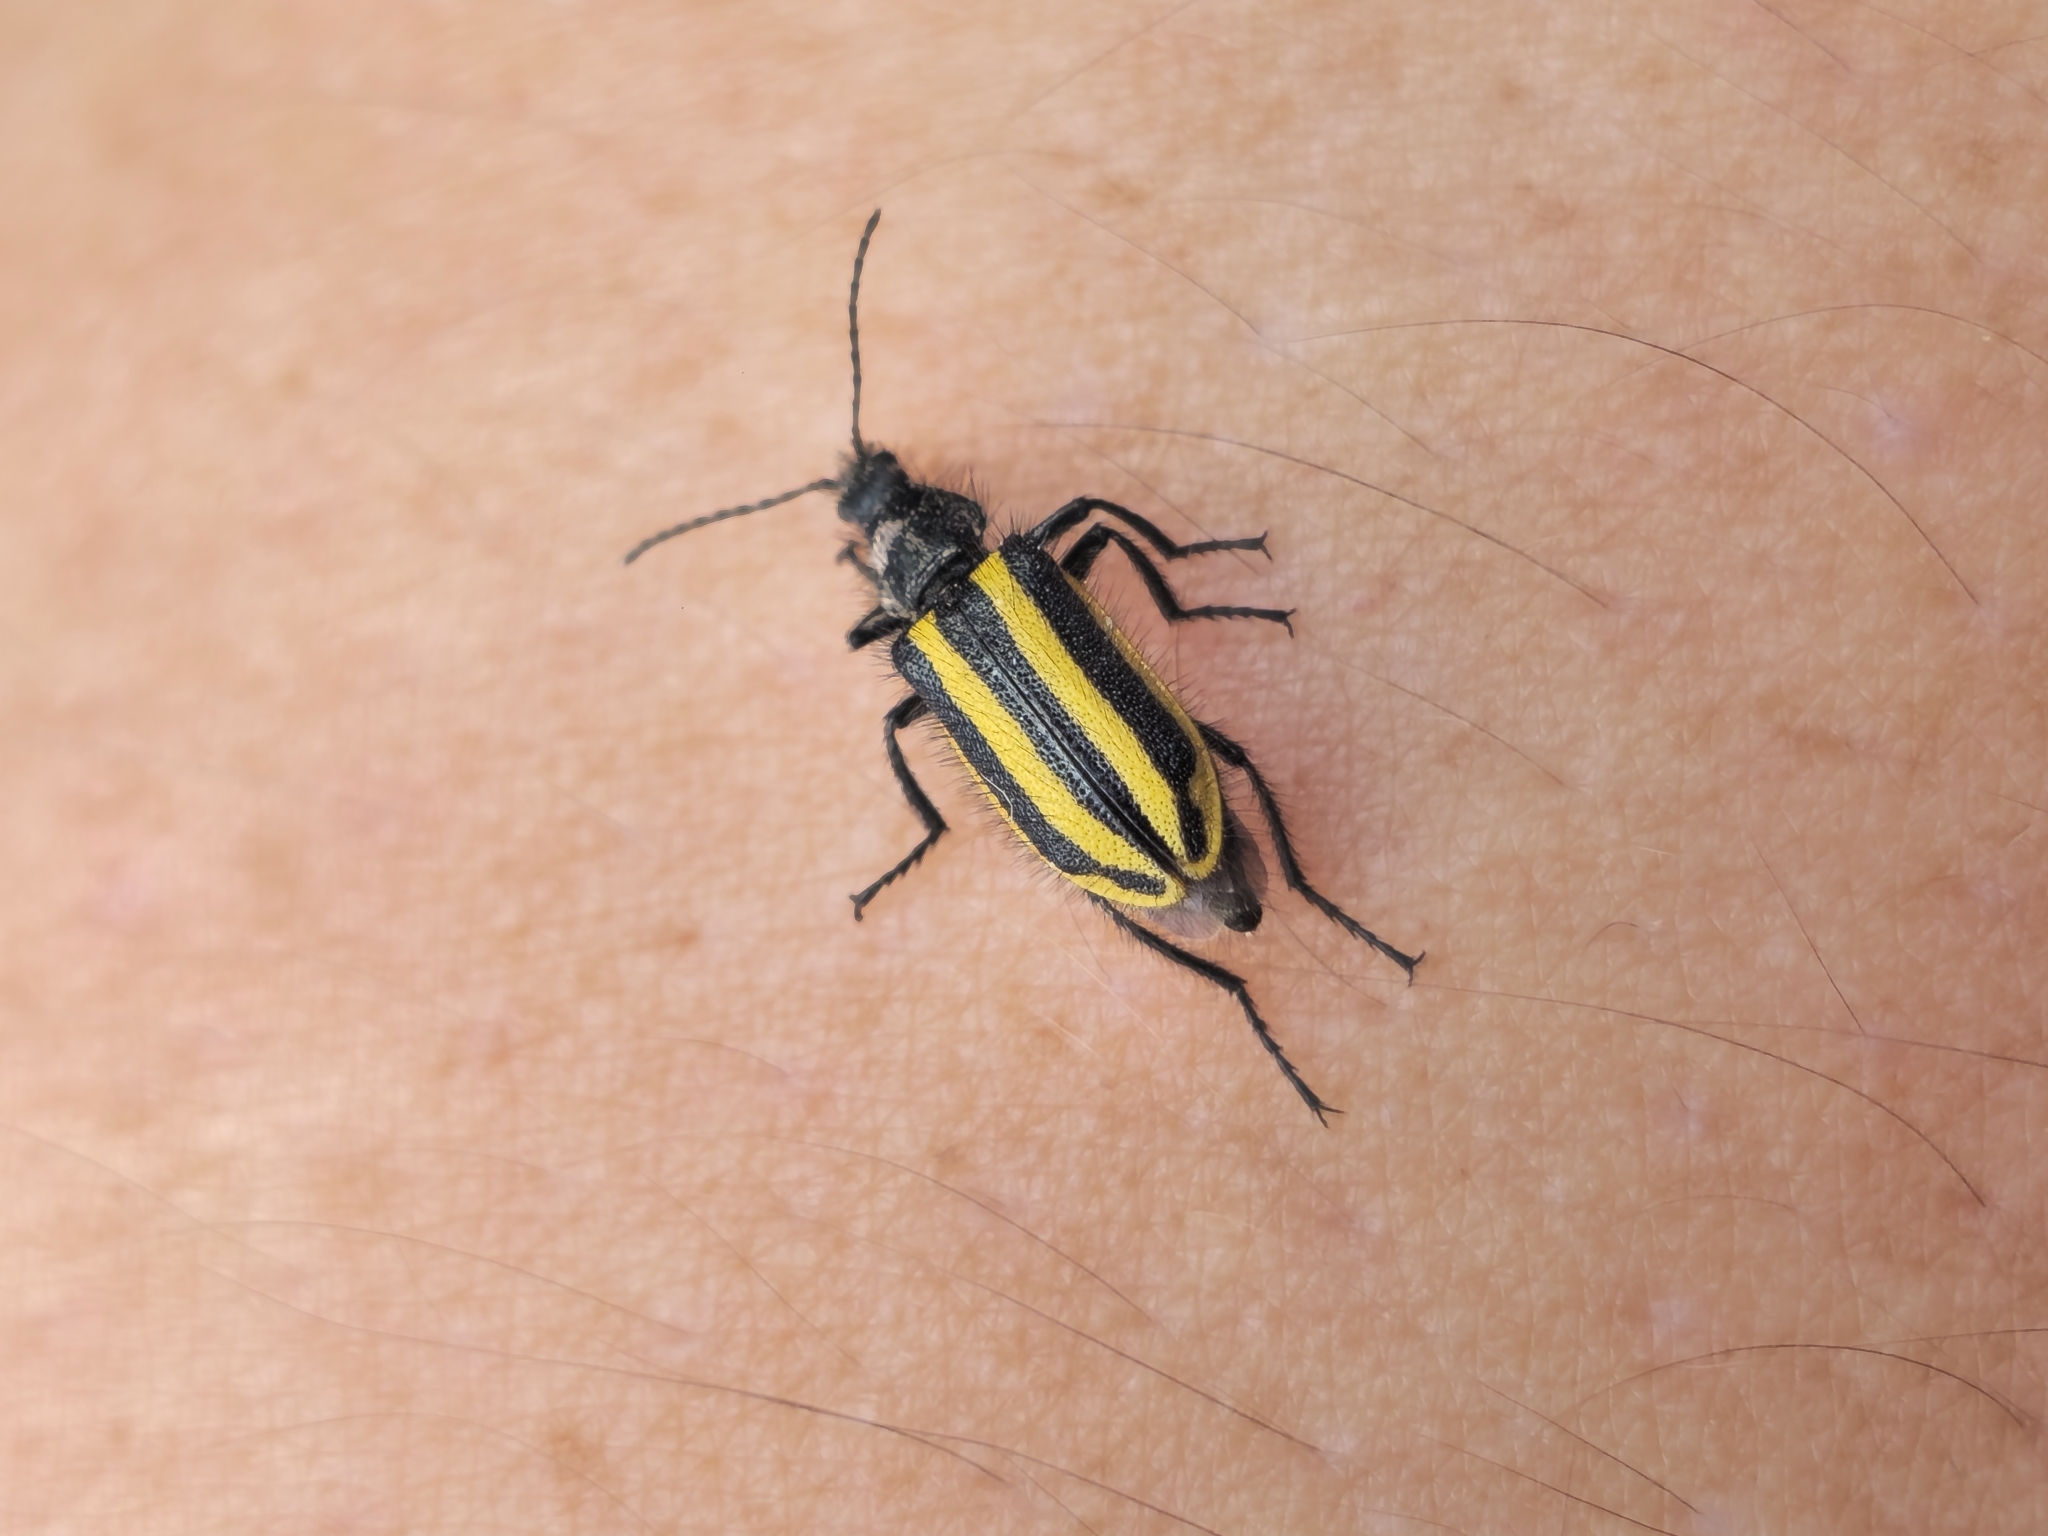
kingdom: Animalia
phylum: Arthropoda
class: Insecta
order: Coleoptera
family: Melyridae
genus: Astylus
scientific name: Astylus vittaticollis
